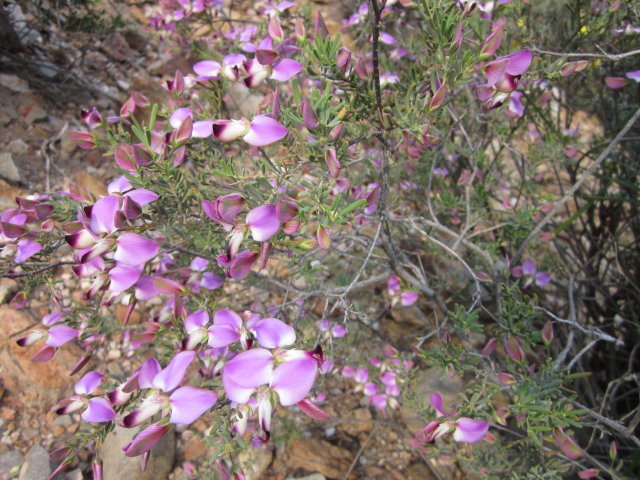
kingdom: Plantae
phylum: Tracheophyta
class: Magnoliopsida
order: Fabales
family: Polygalaceae
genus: Polygala
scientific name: Polygala myrtifolia
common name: Myrtle-leaf milkwort
